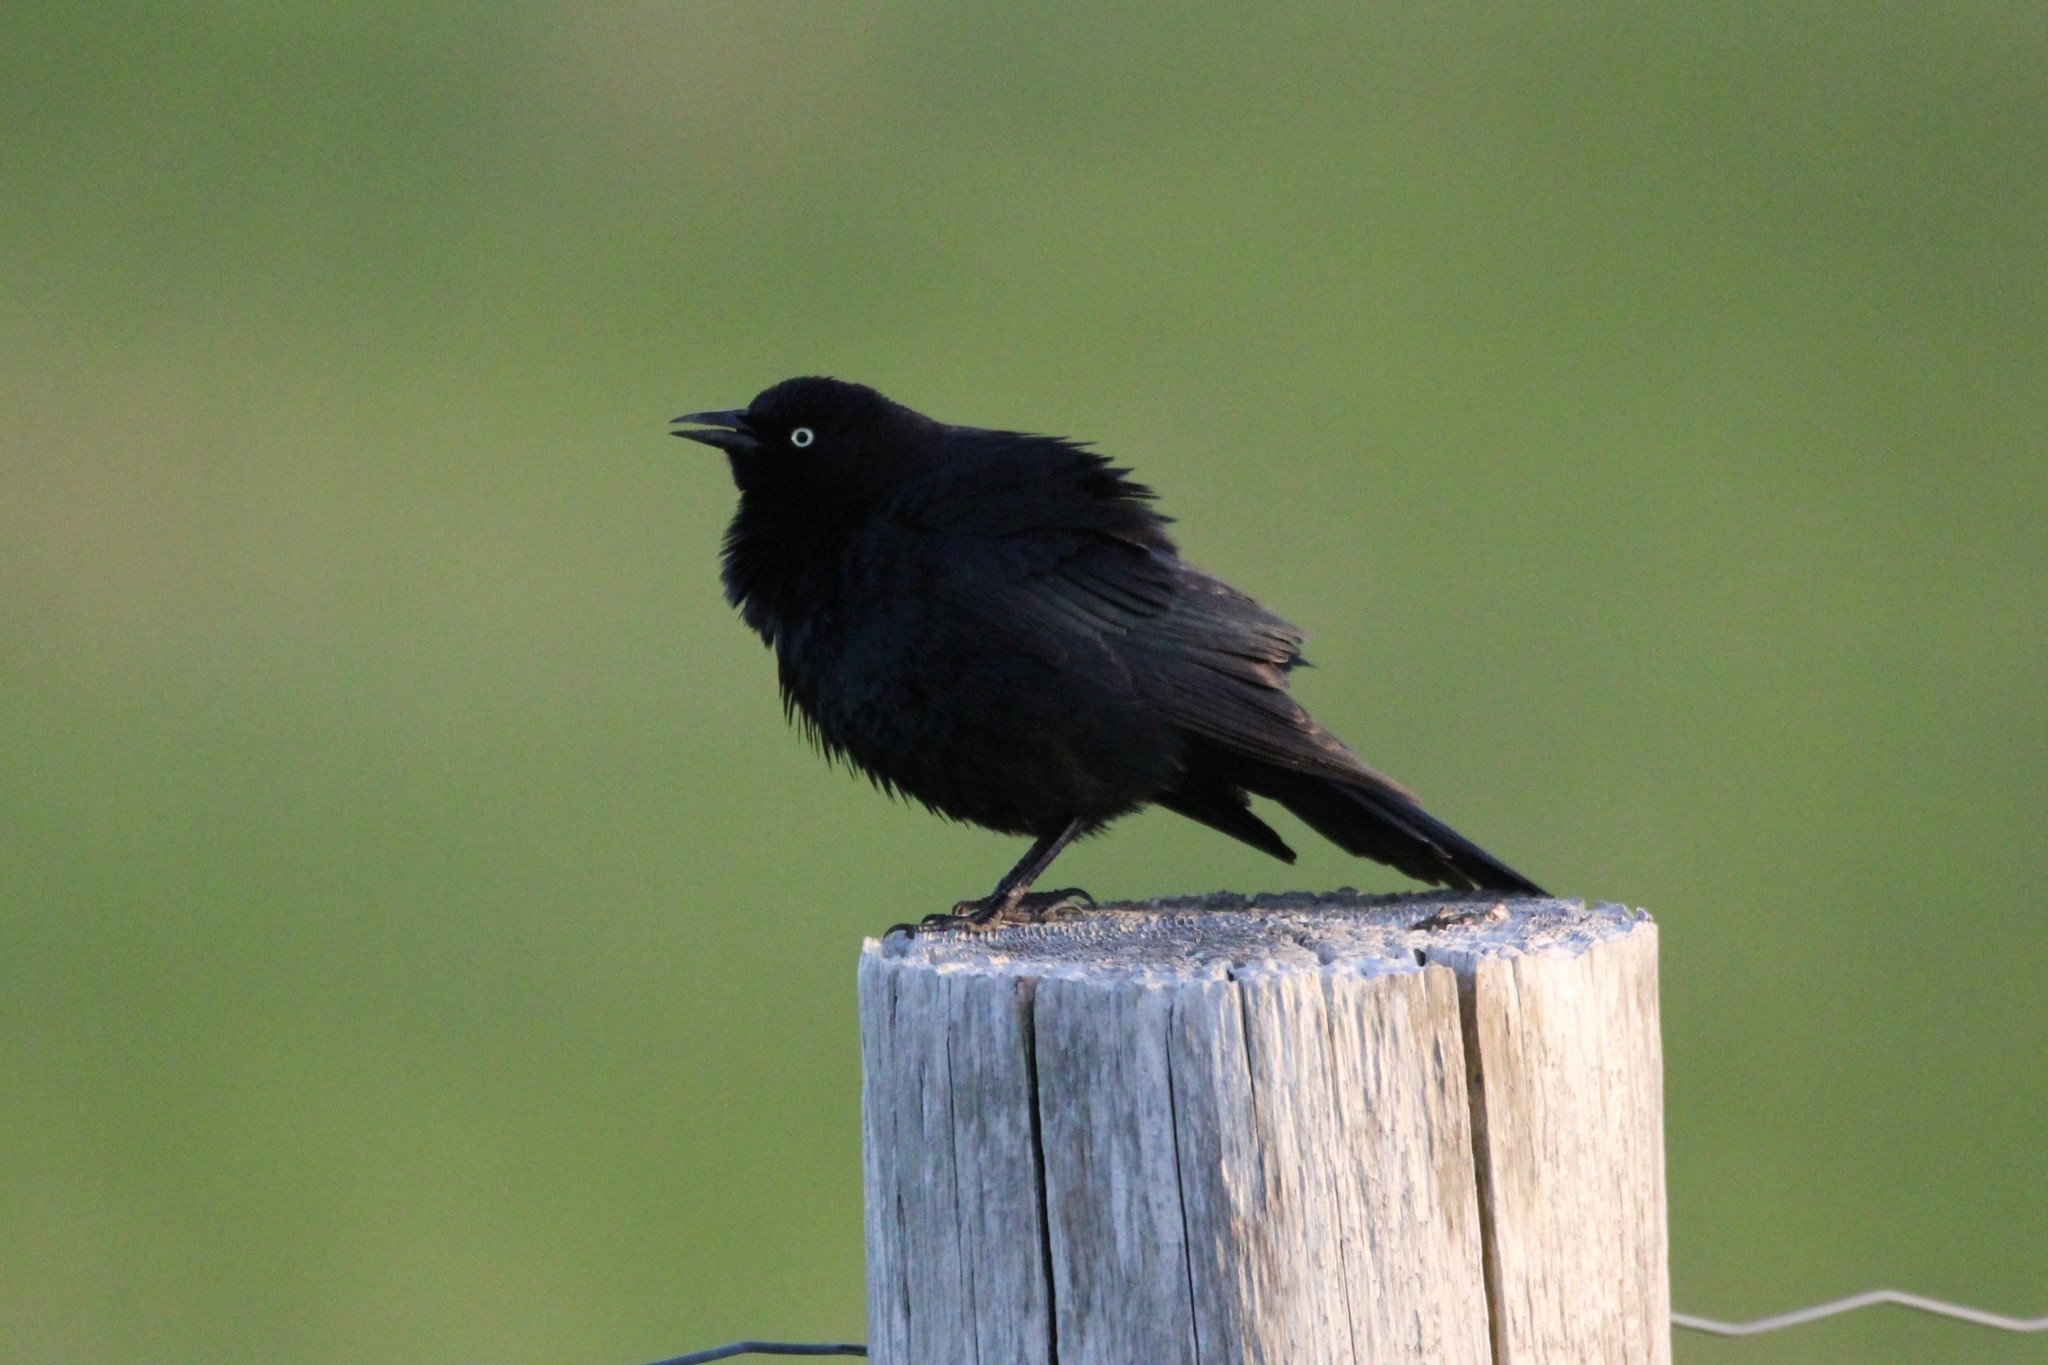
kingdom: Animalia
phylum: Chordata
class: Aves
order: Passeriformes
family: Icteridae
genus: Euphagus
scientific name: Euphagus cyanocephalus
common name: Brewer's blackbird
